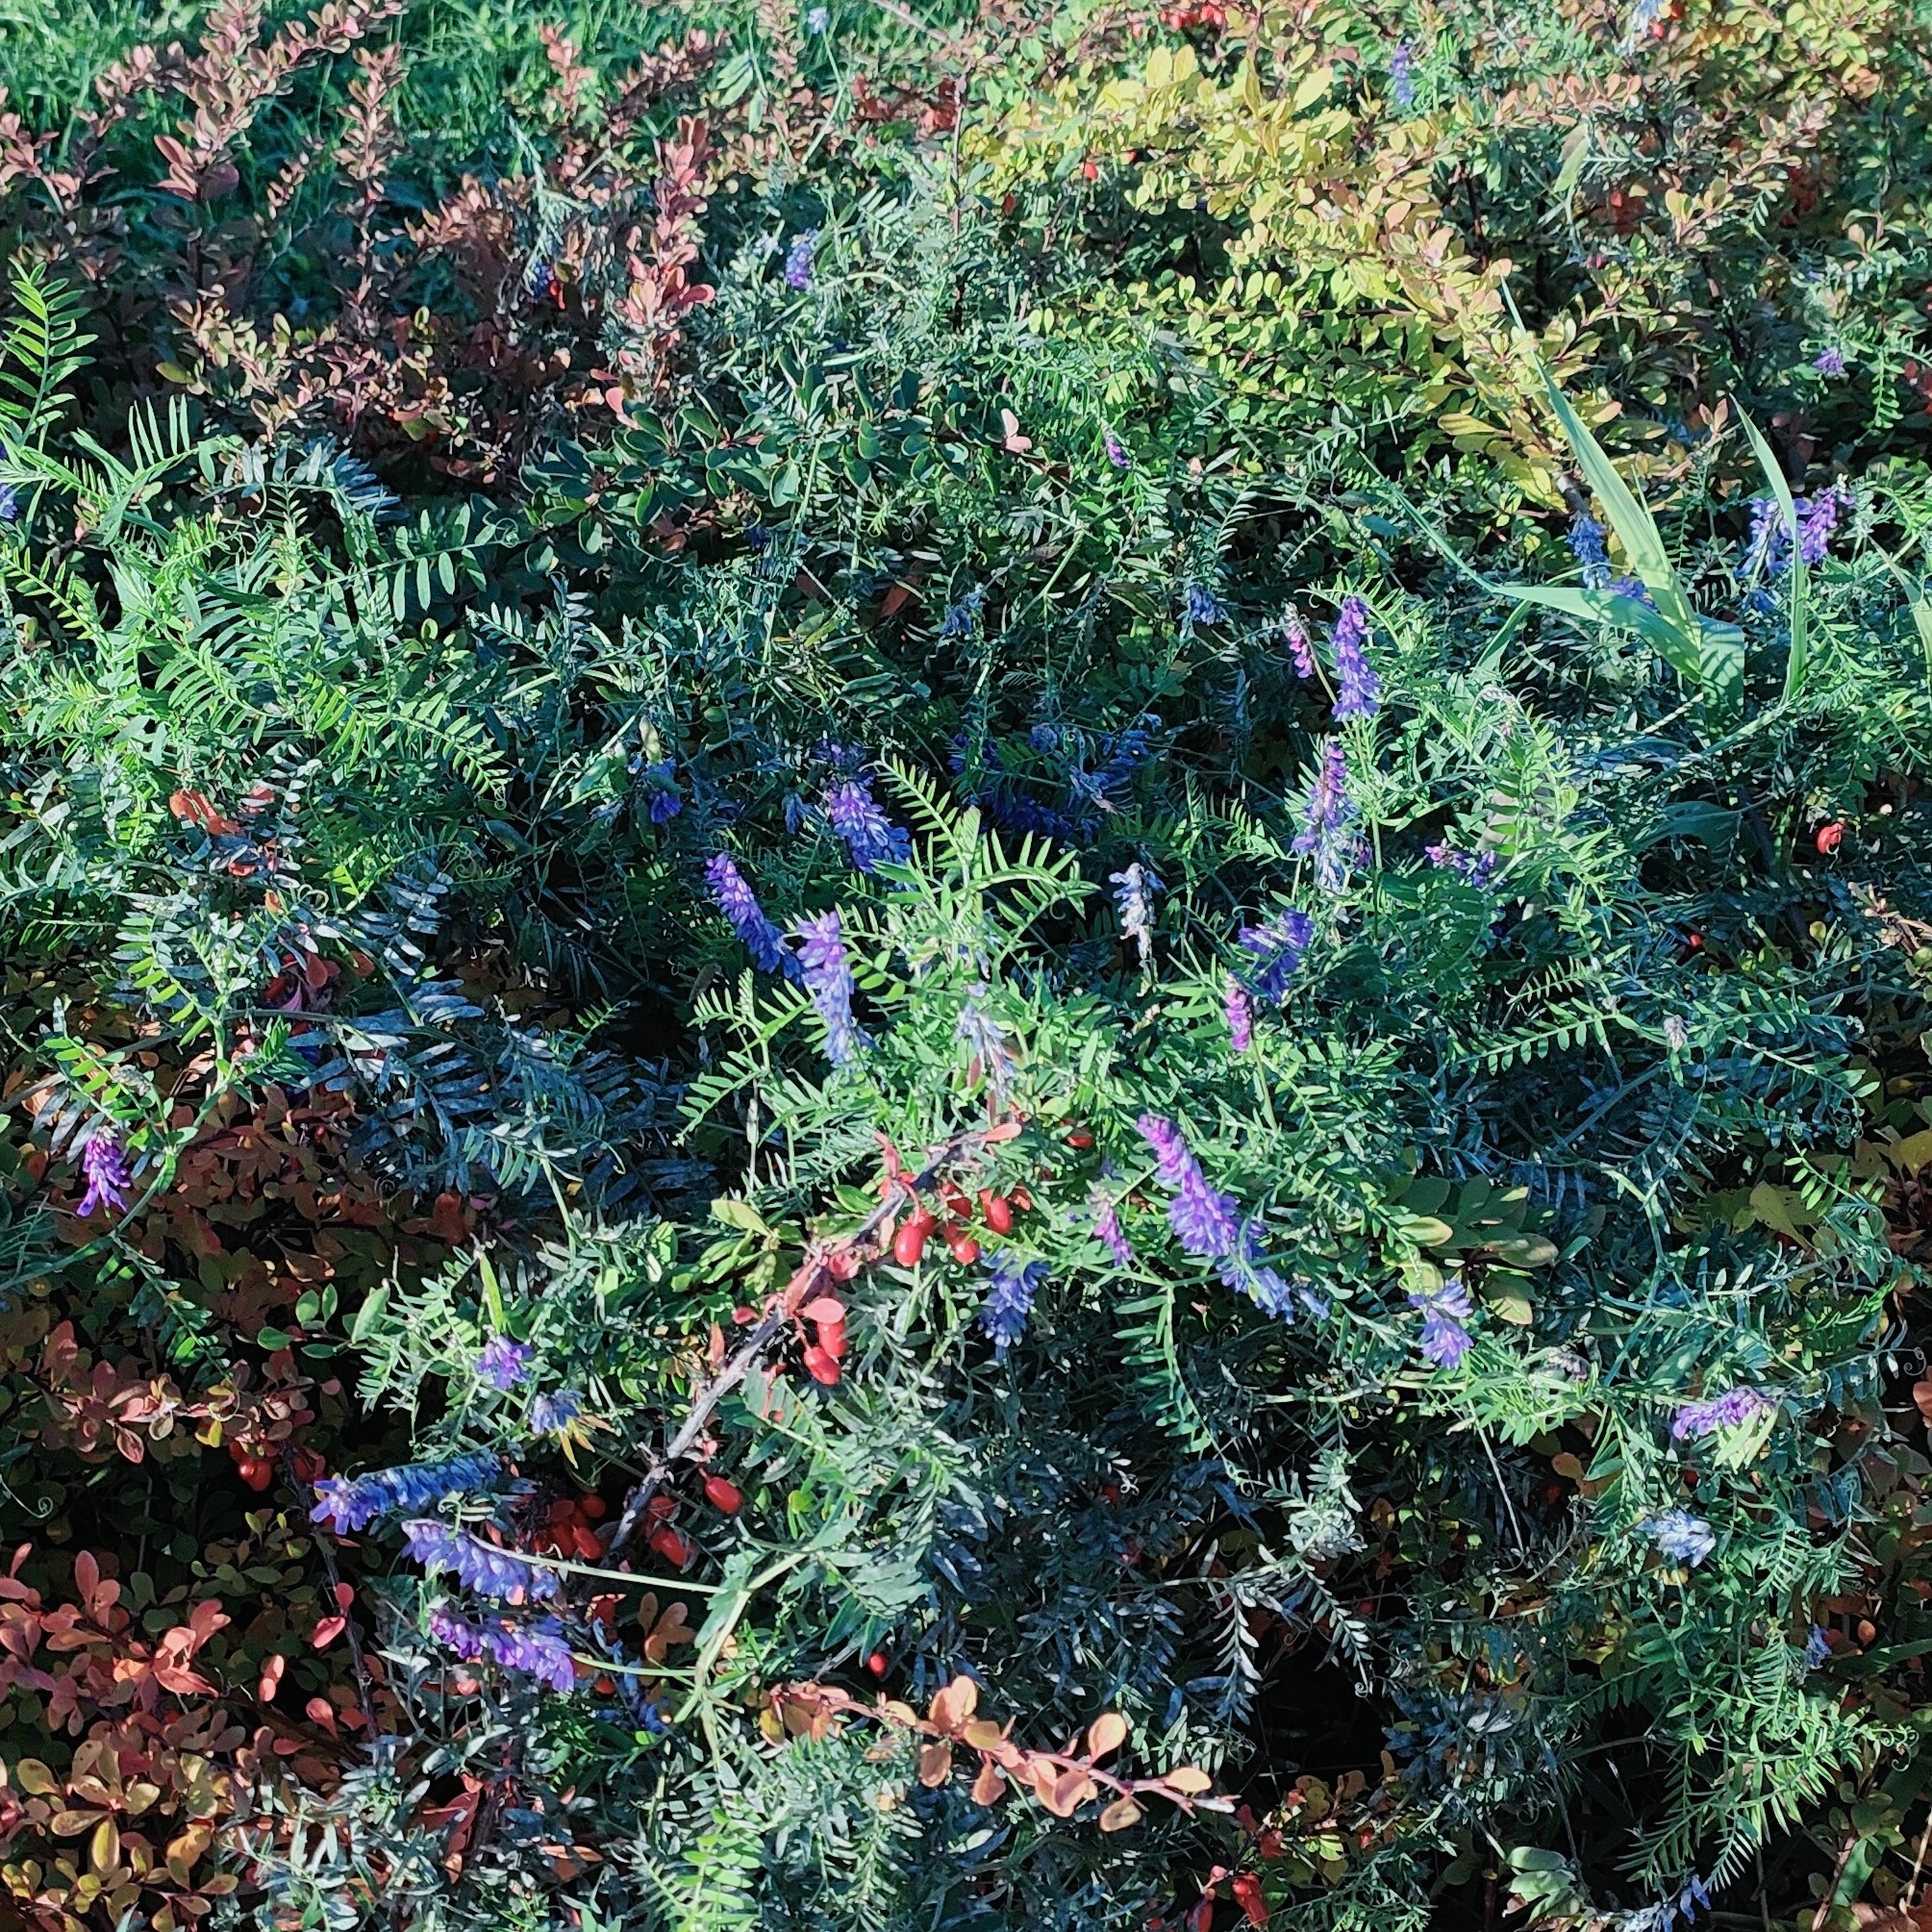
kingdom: Plantae
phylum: Tracheophyta
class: Magnoliopsida
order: Fabales
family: Fabaceae
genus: Vicia
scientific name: Vicia cracca
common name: Bird vetch
